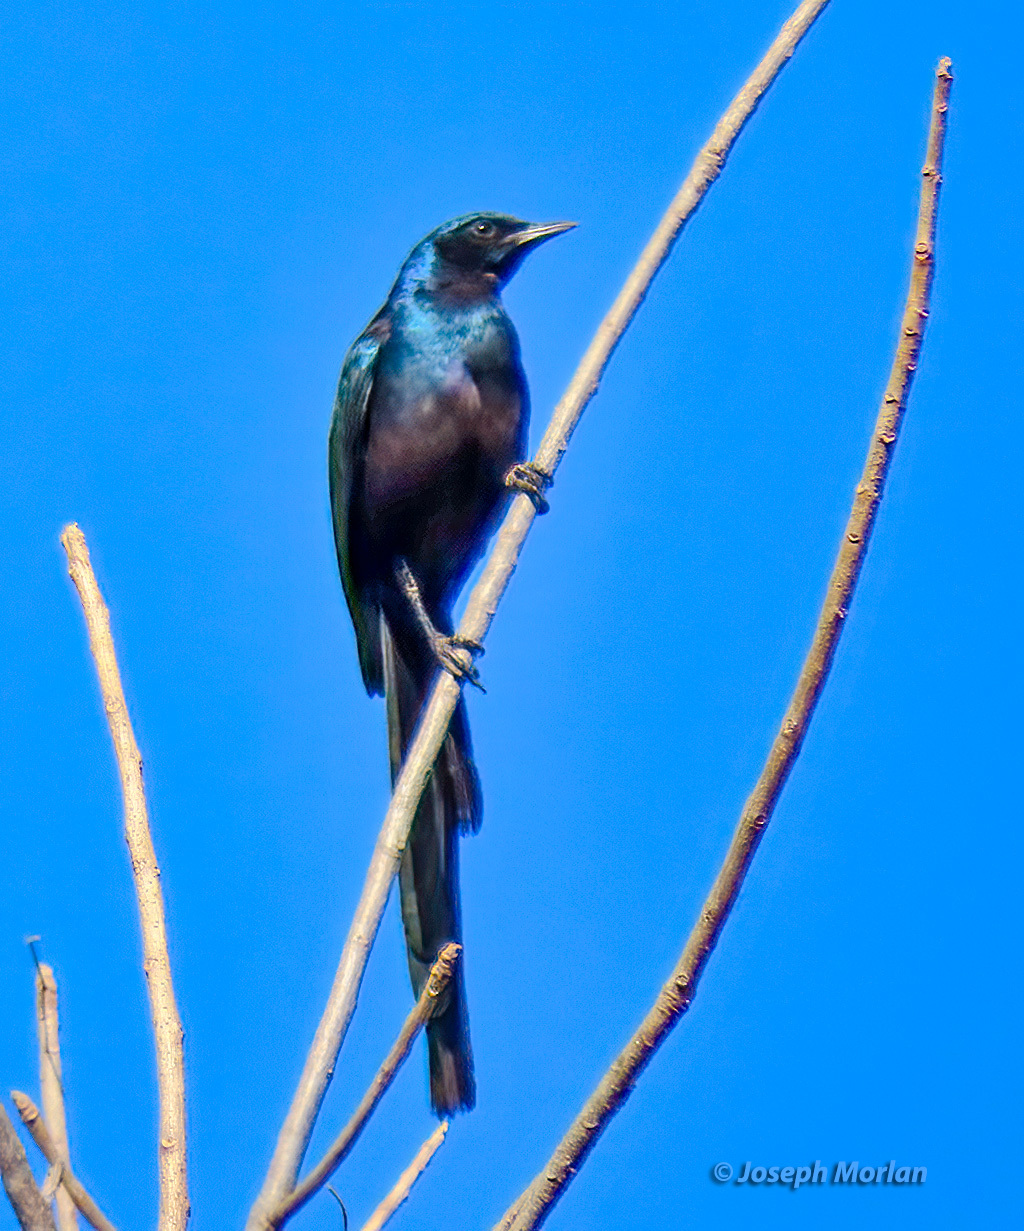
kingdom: Animalia
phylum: Chordata
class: Aves
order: Passeriformes
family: Sturnidae
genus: Lamprotornis
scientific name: Lamprotornis mevesii
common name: Meves's starling
